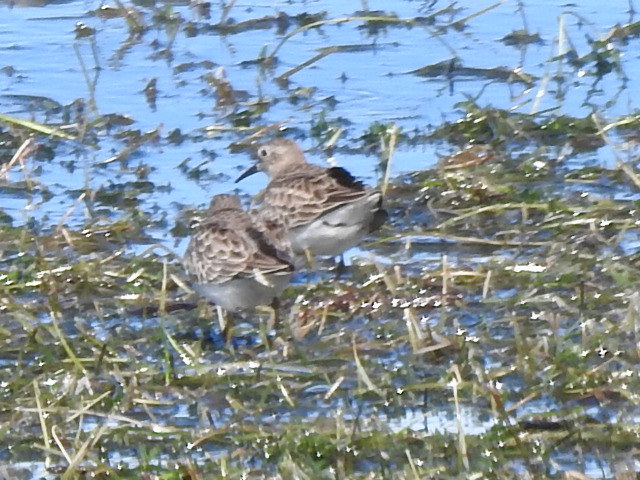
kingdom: Animalia
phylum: Chordata
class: Aves
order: Charadriiformes
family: Scolopacidae
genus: Calidris
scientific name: Calidris minutilla
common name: Least sandpiper
